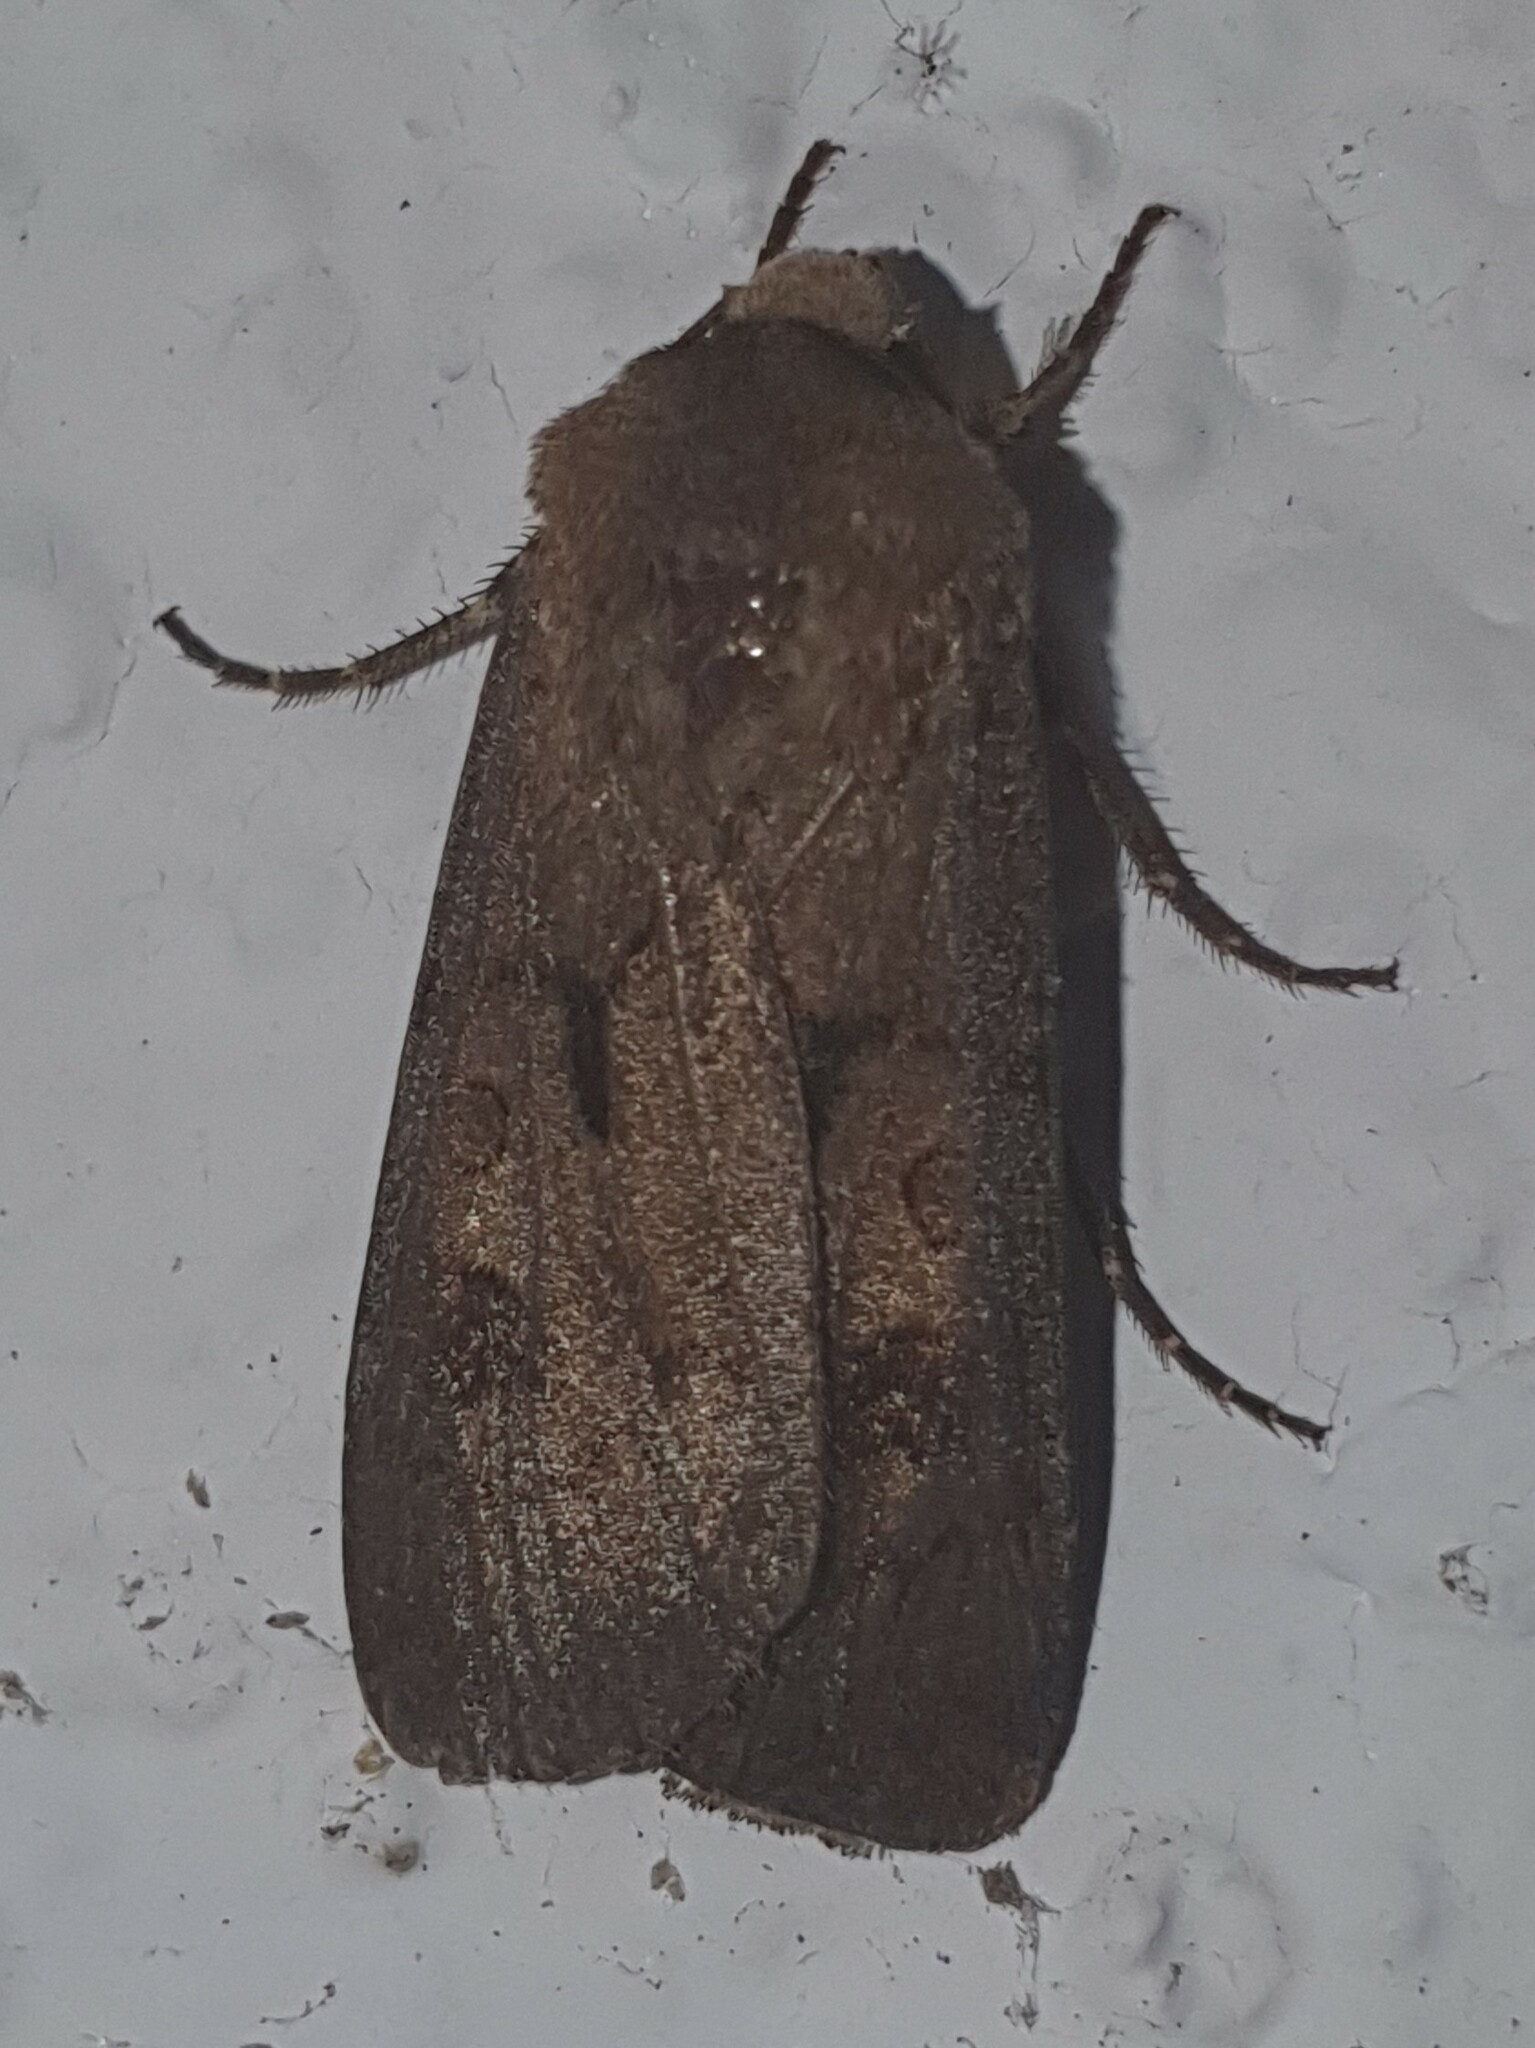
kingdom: Animalia
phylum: Arthropoda
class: Insecta
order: Lepidoptera
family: Noctuidae
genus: Agrotis
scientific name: Agrotis exclamationis
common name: Heart and dart
